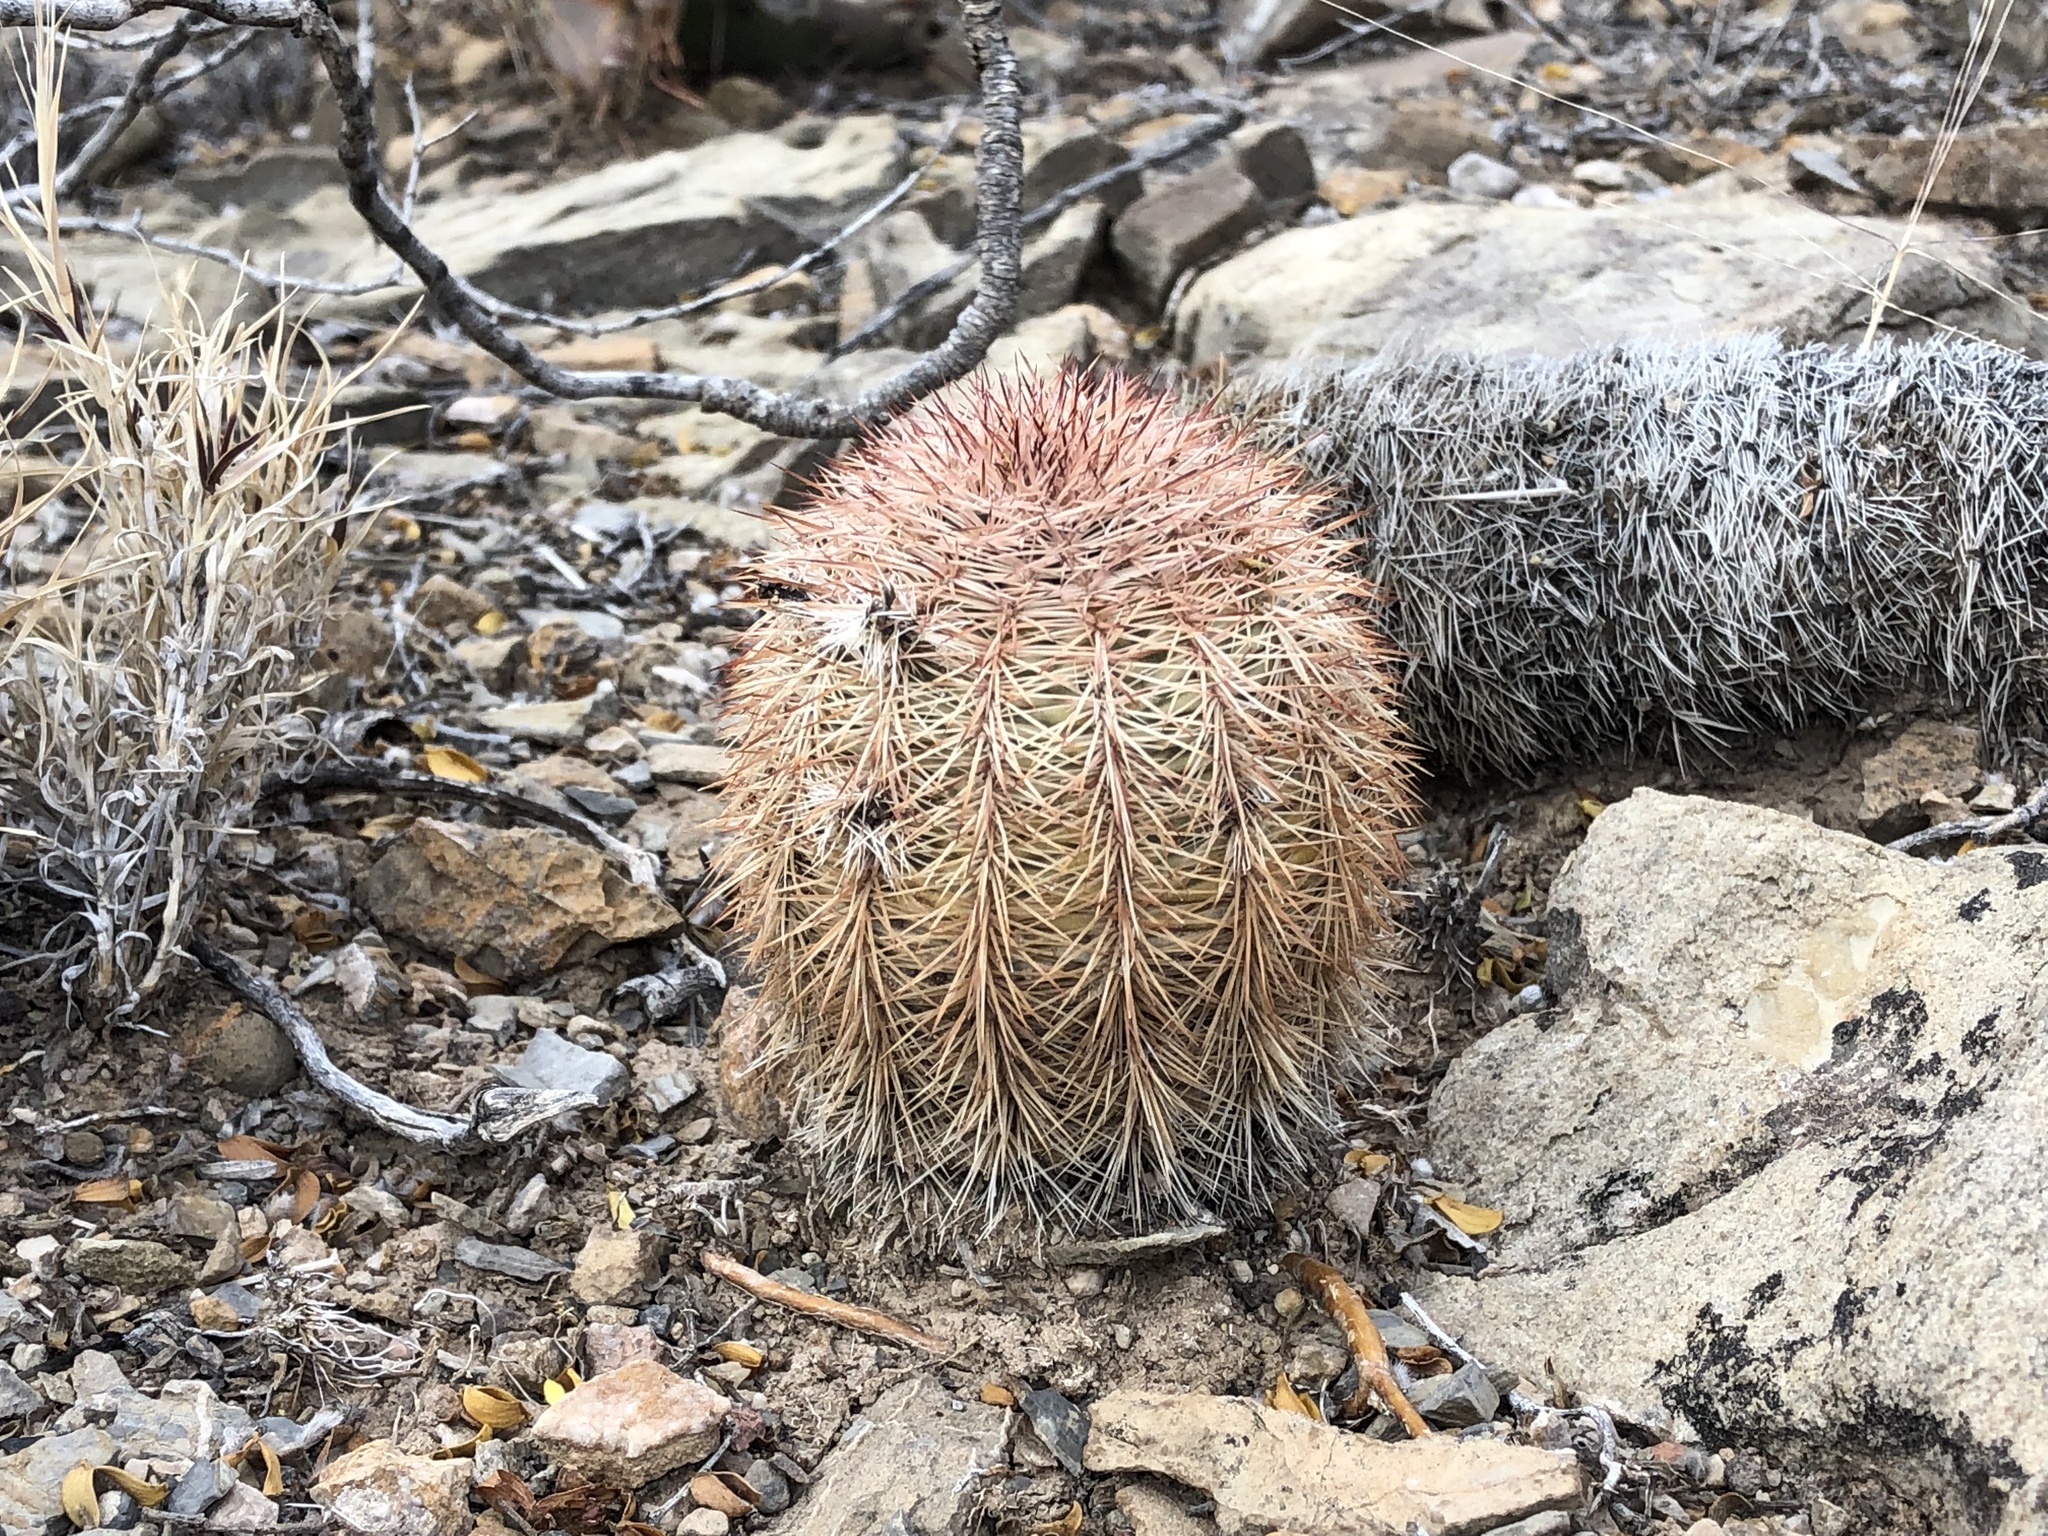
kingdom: Plantae
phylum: Tracheophyta
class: Magnoliopsida
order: Caryophyllales
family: Cactaceae
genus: Echinocereus
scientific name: Echinocereus dasyacanthus
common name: Spiny hedgehog cactus
